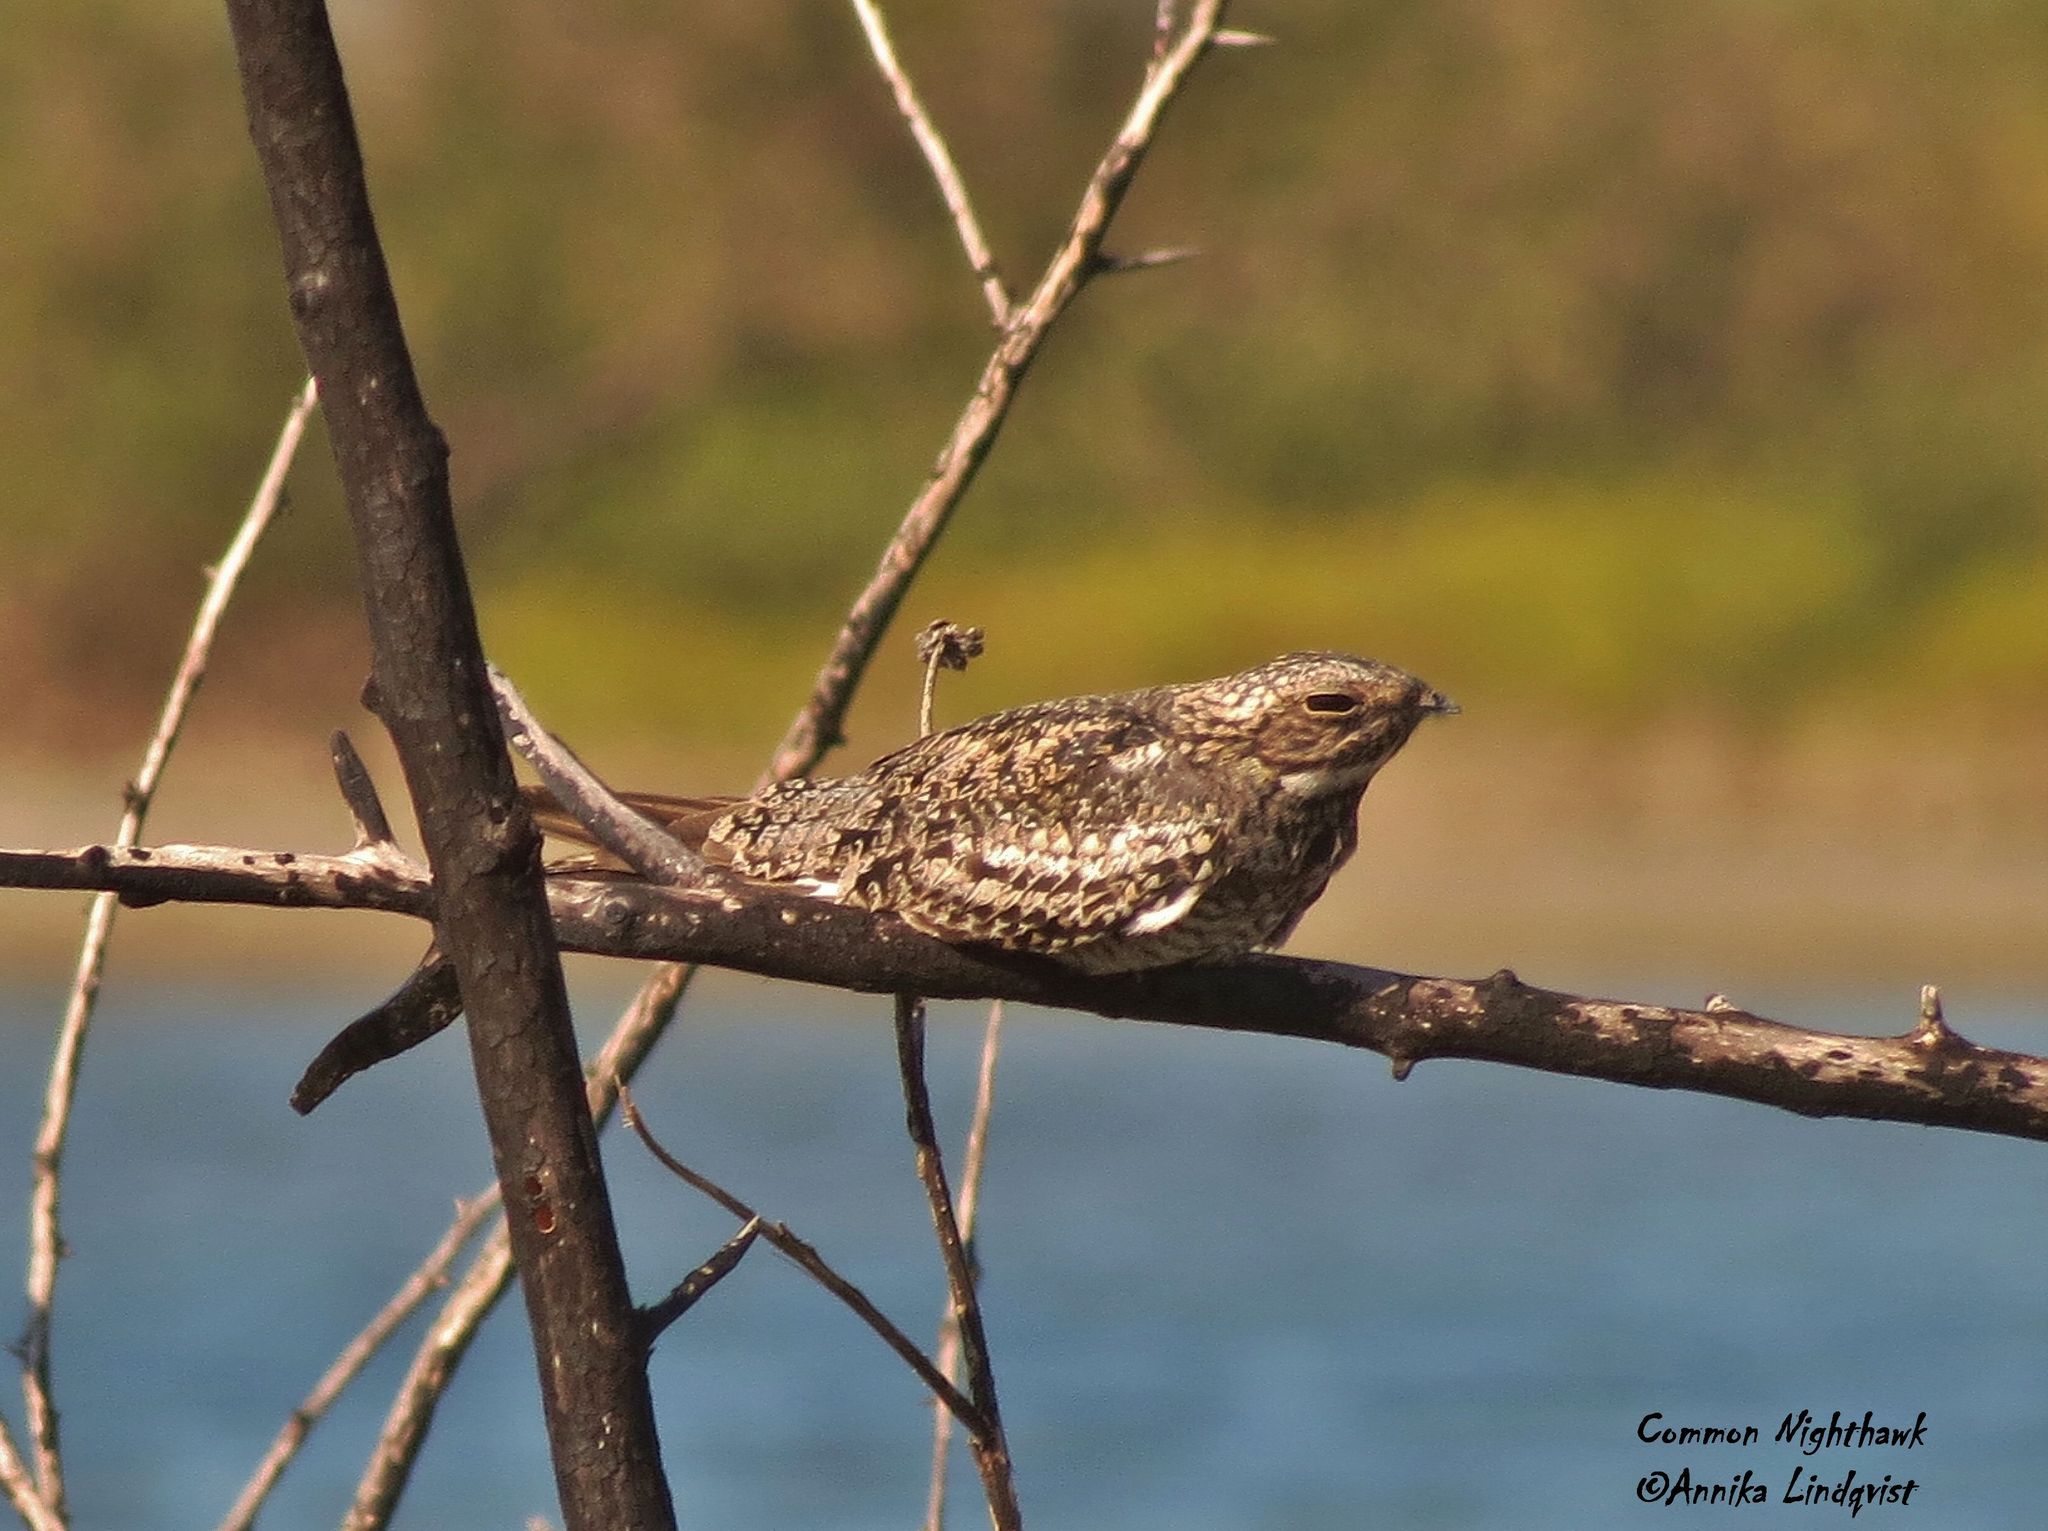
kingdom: Animalia
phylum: Chordata
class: Aves
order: Caprimulgiformes
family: Caprimulgidae
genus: Chordeiles
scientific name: Chordeiles minor
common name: Common nighthawk
